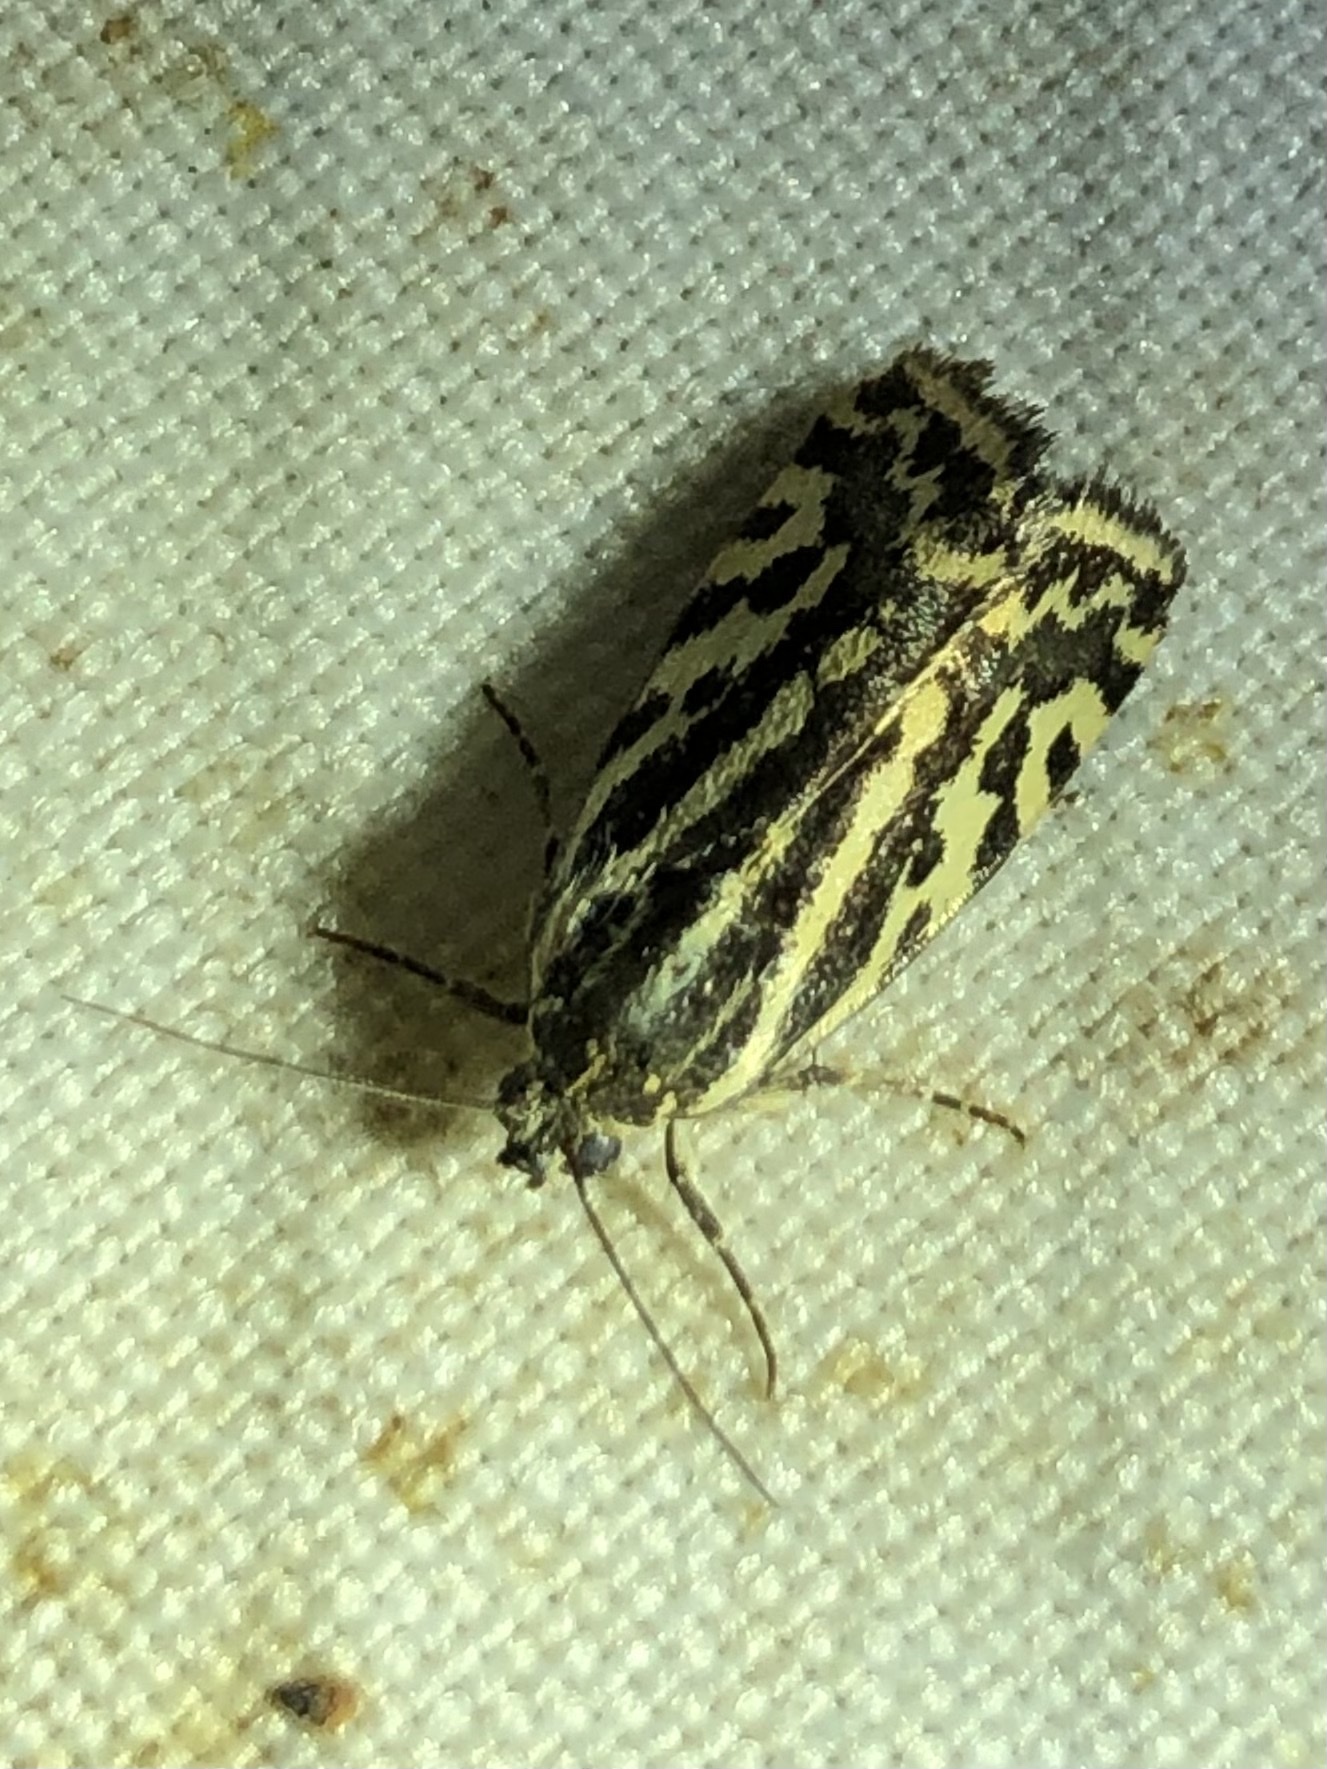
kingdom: Animalia
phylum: Arthropoda
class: Insecta
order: Lepidoptera
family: Noctuidae
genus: Acontia
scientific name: Acontia trabealis
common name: Spotted sulphur
